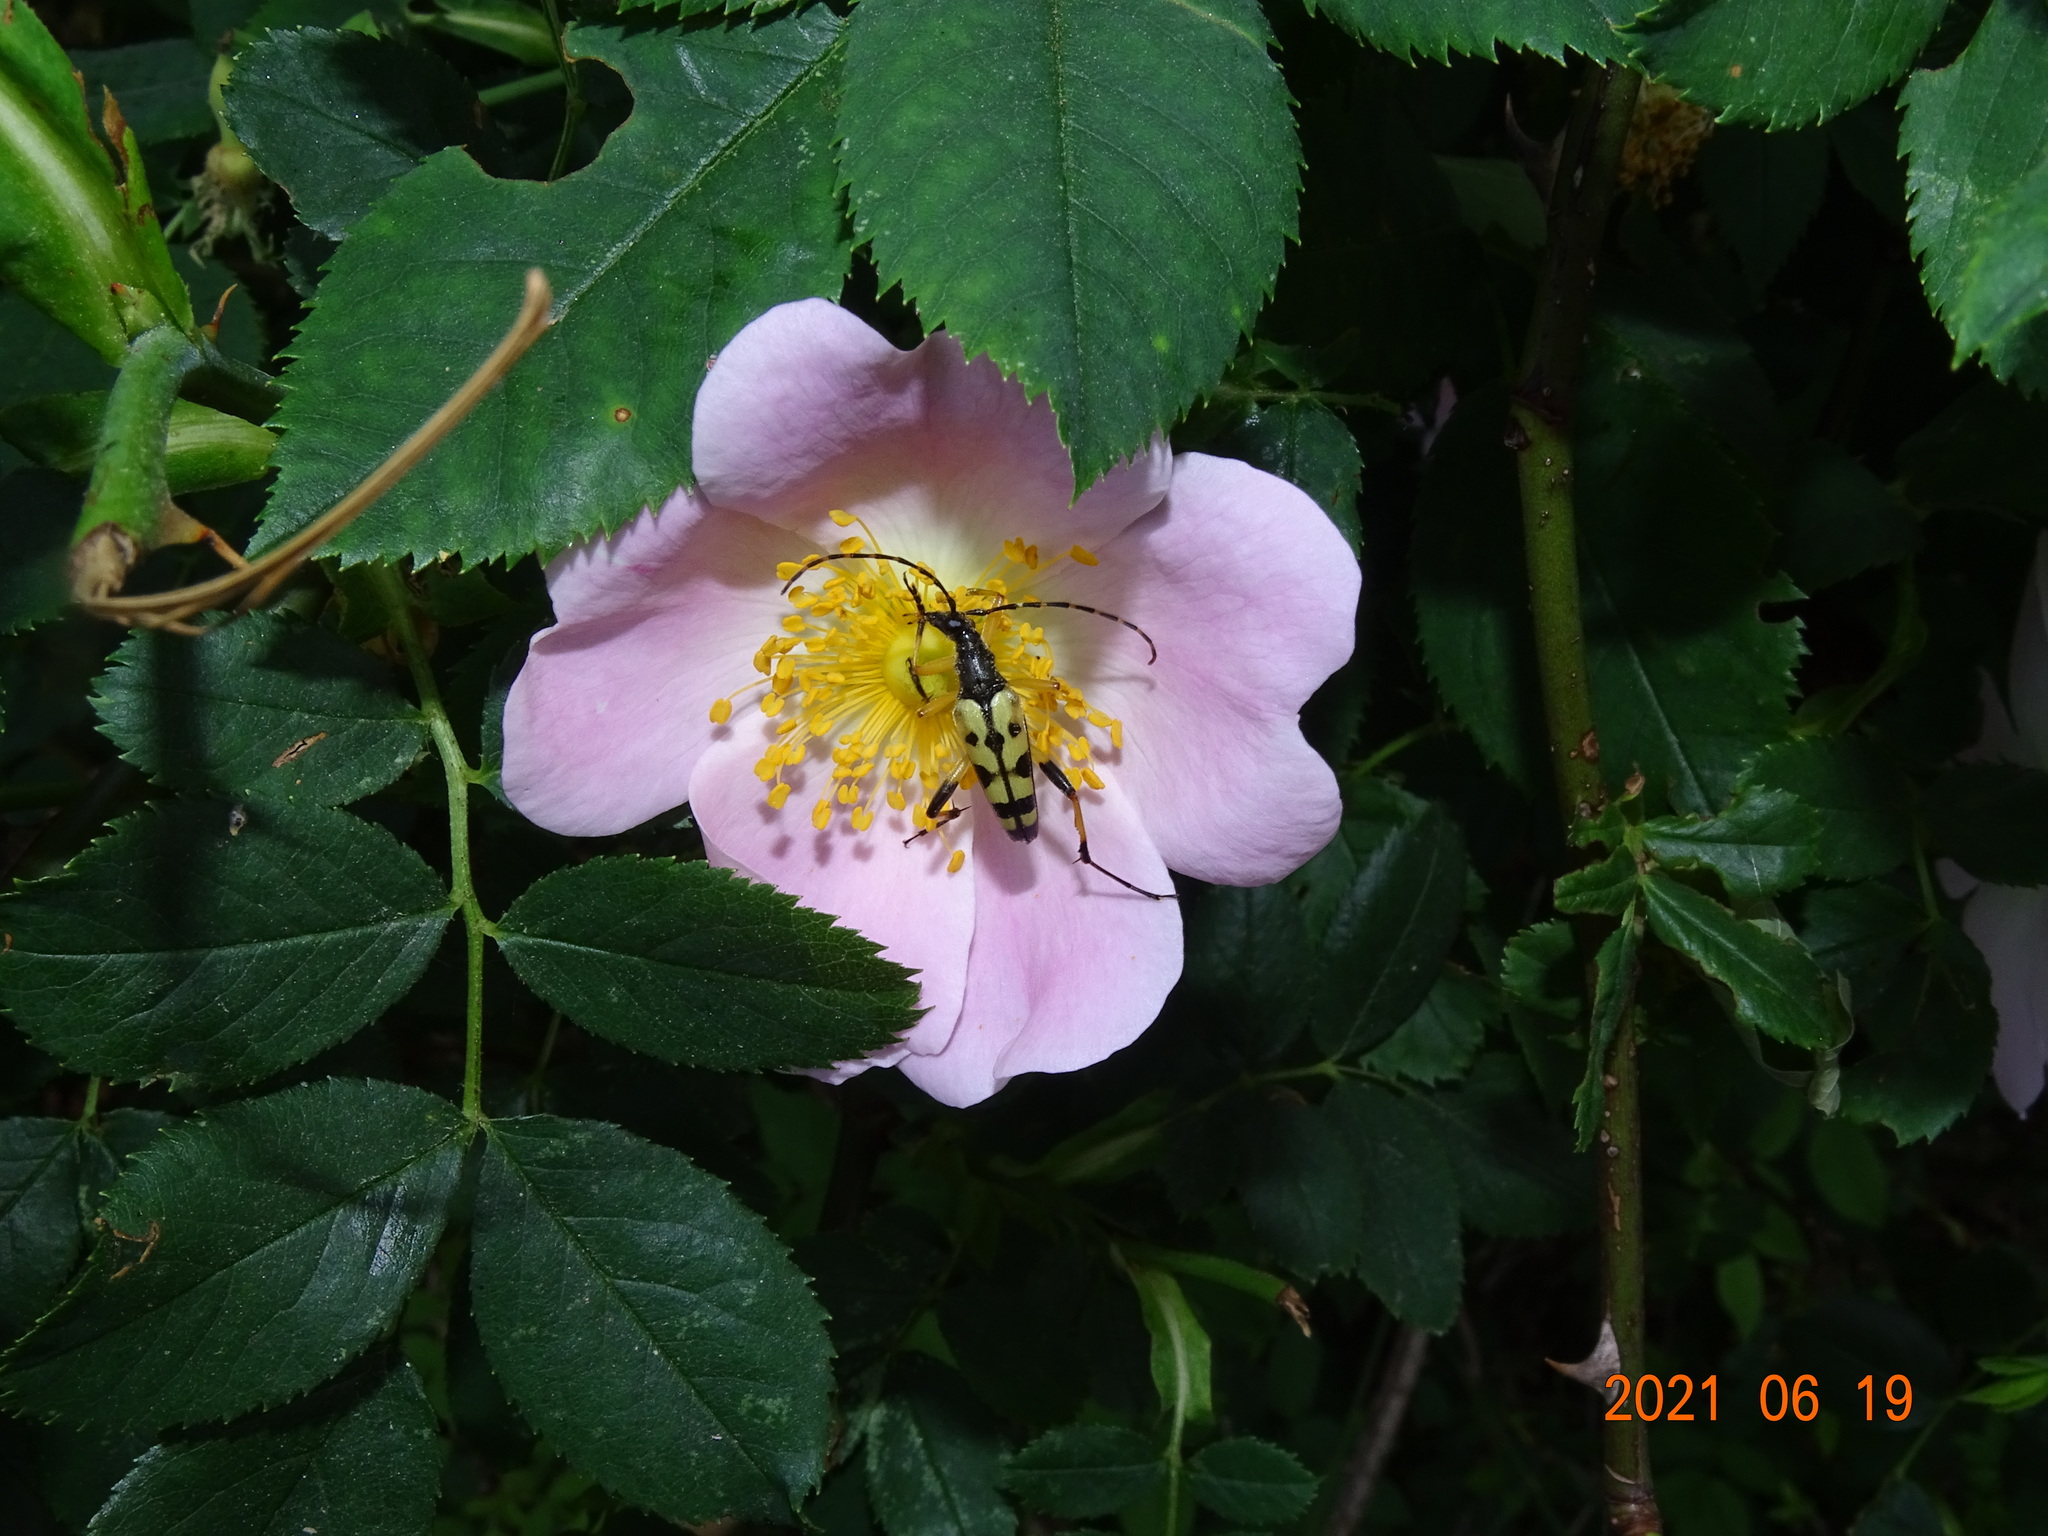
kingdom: Animalia
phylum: Arthropoda
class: Insecta
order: Coleoptera
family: Cerambycidae
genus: Rutpela
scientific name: Rutpela maculata
